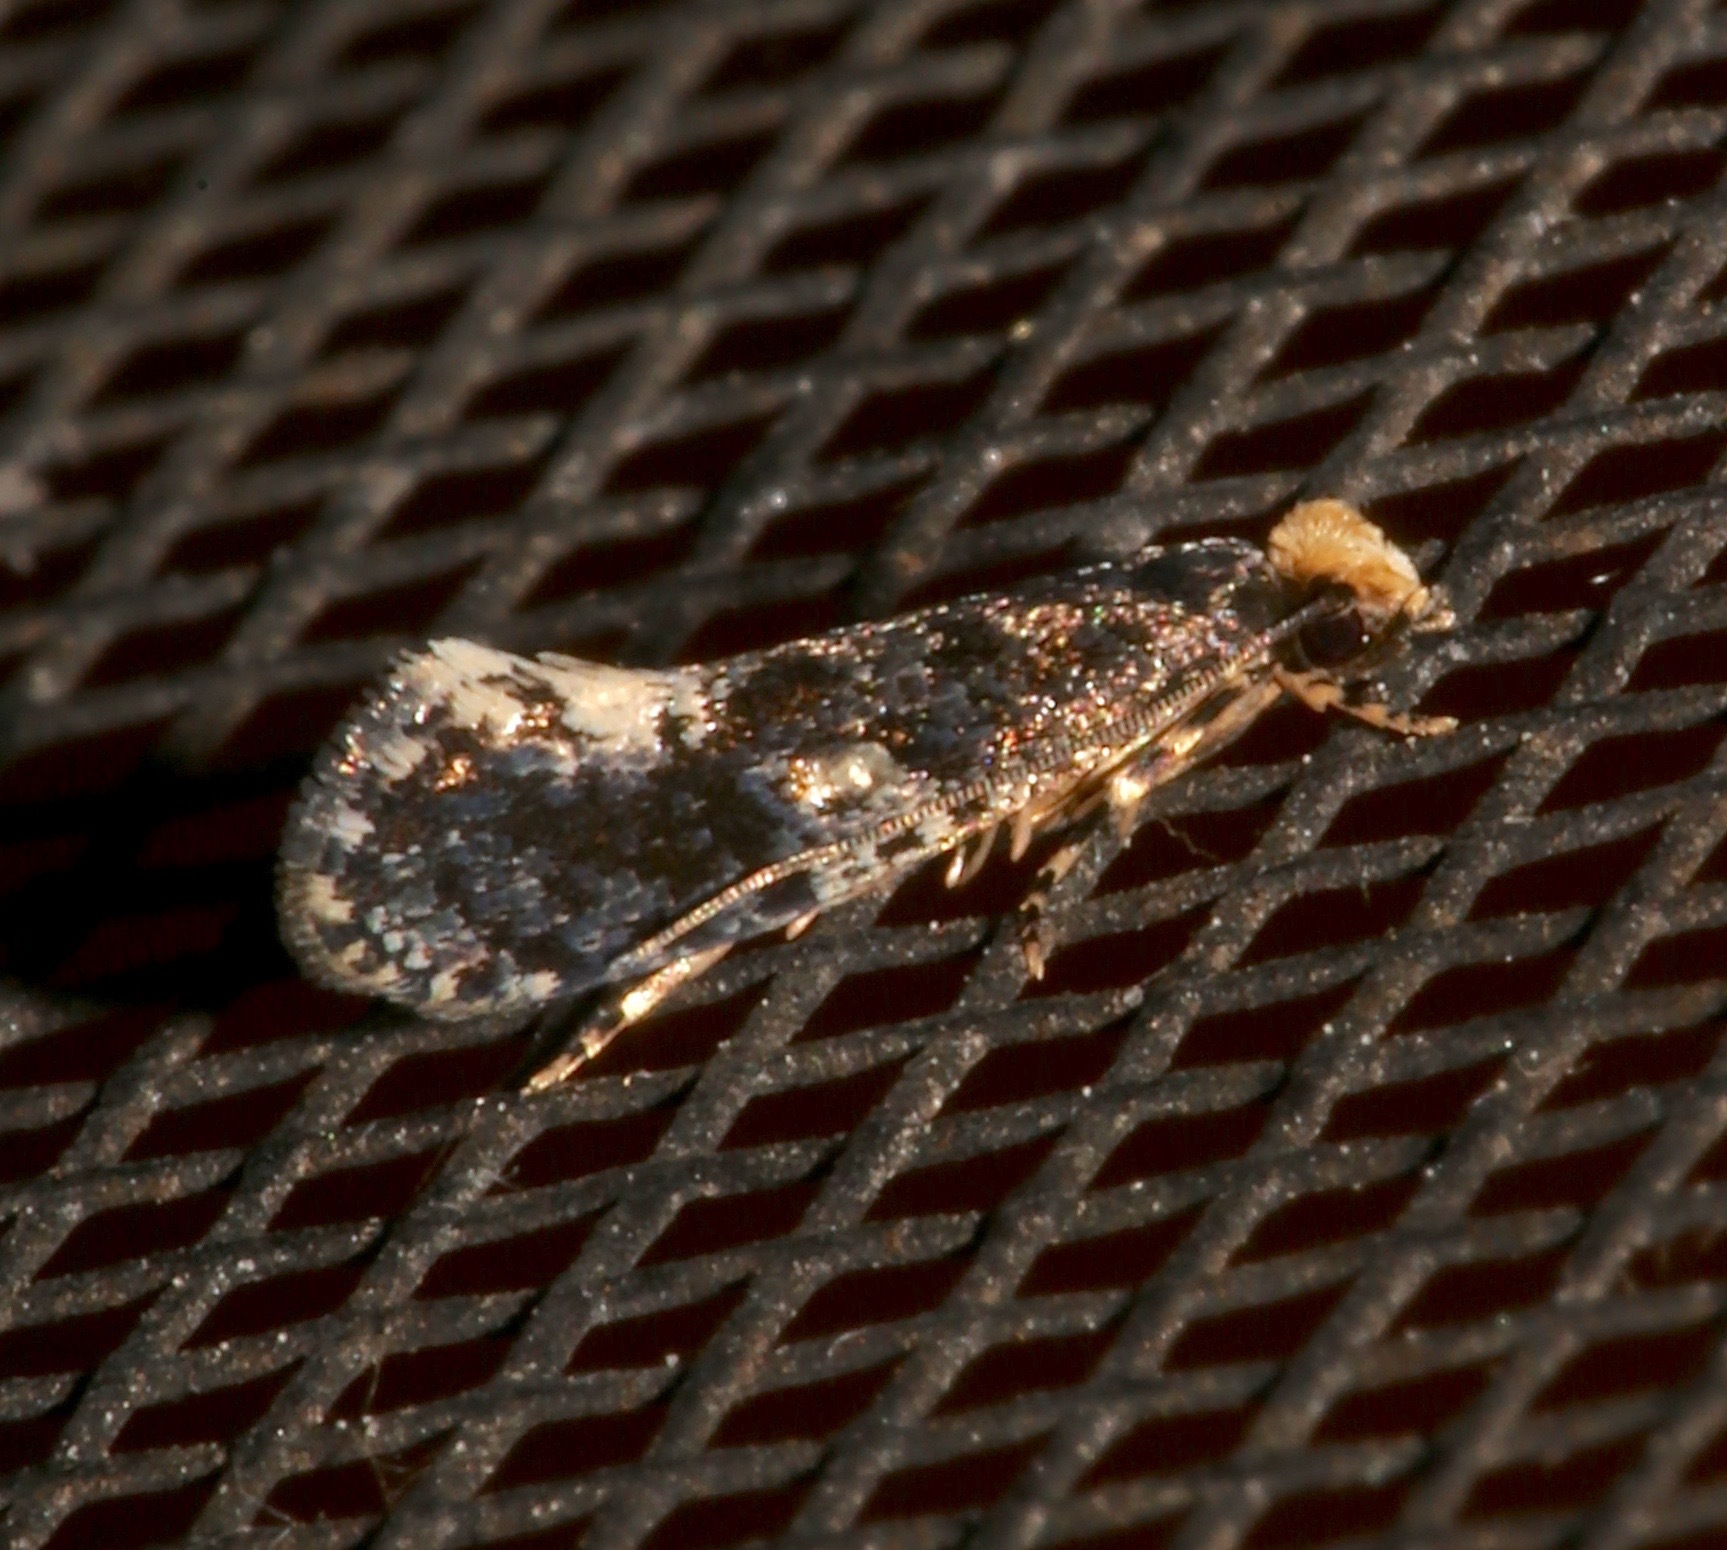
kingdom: Animalia
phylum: Arthropoda
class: Insecta
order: Lepidoptera
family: Tineidae
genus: Monopis
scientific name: Monopis marginistrigella
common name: White-blotched monopis moth
